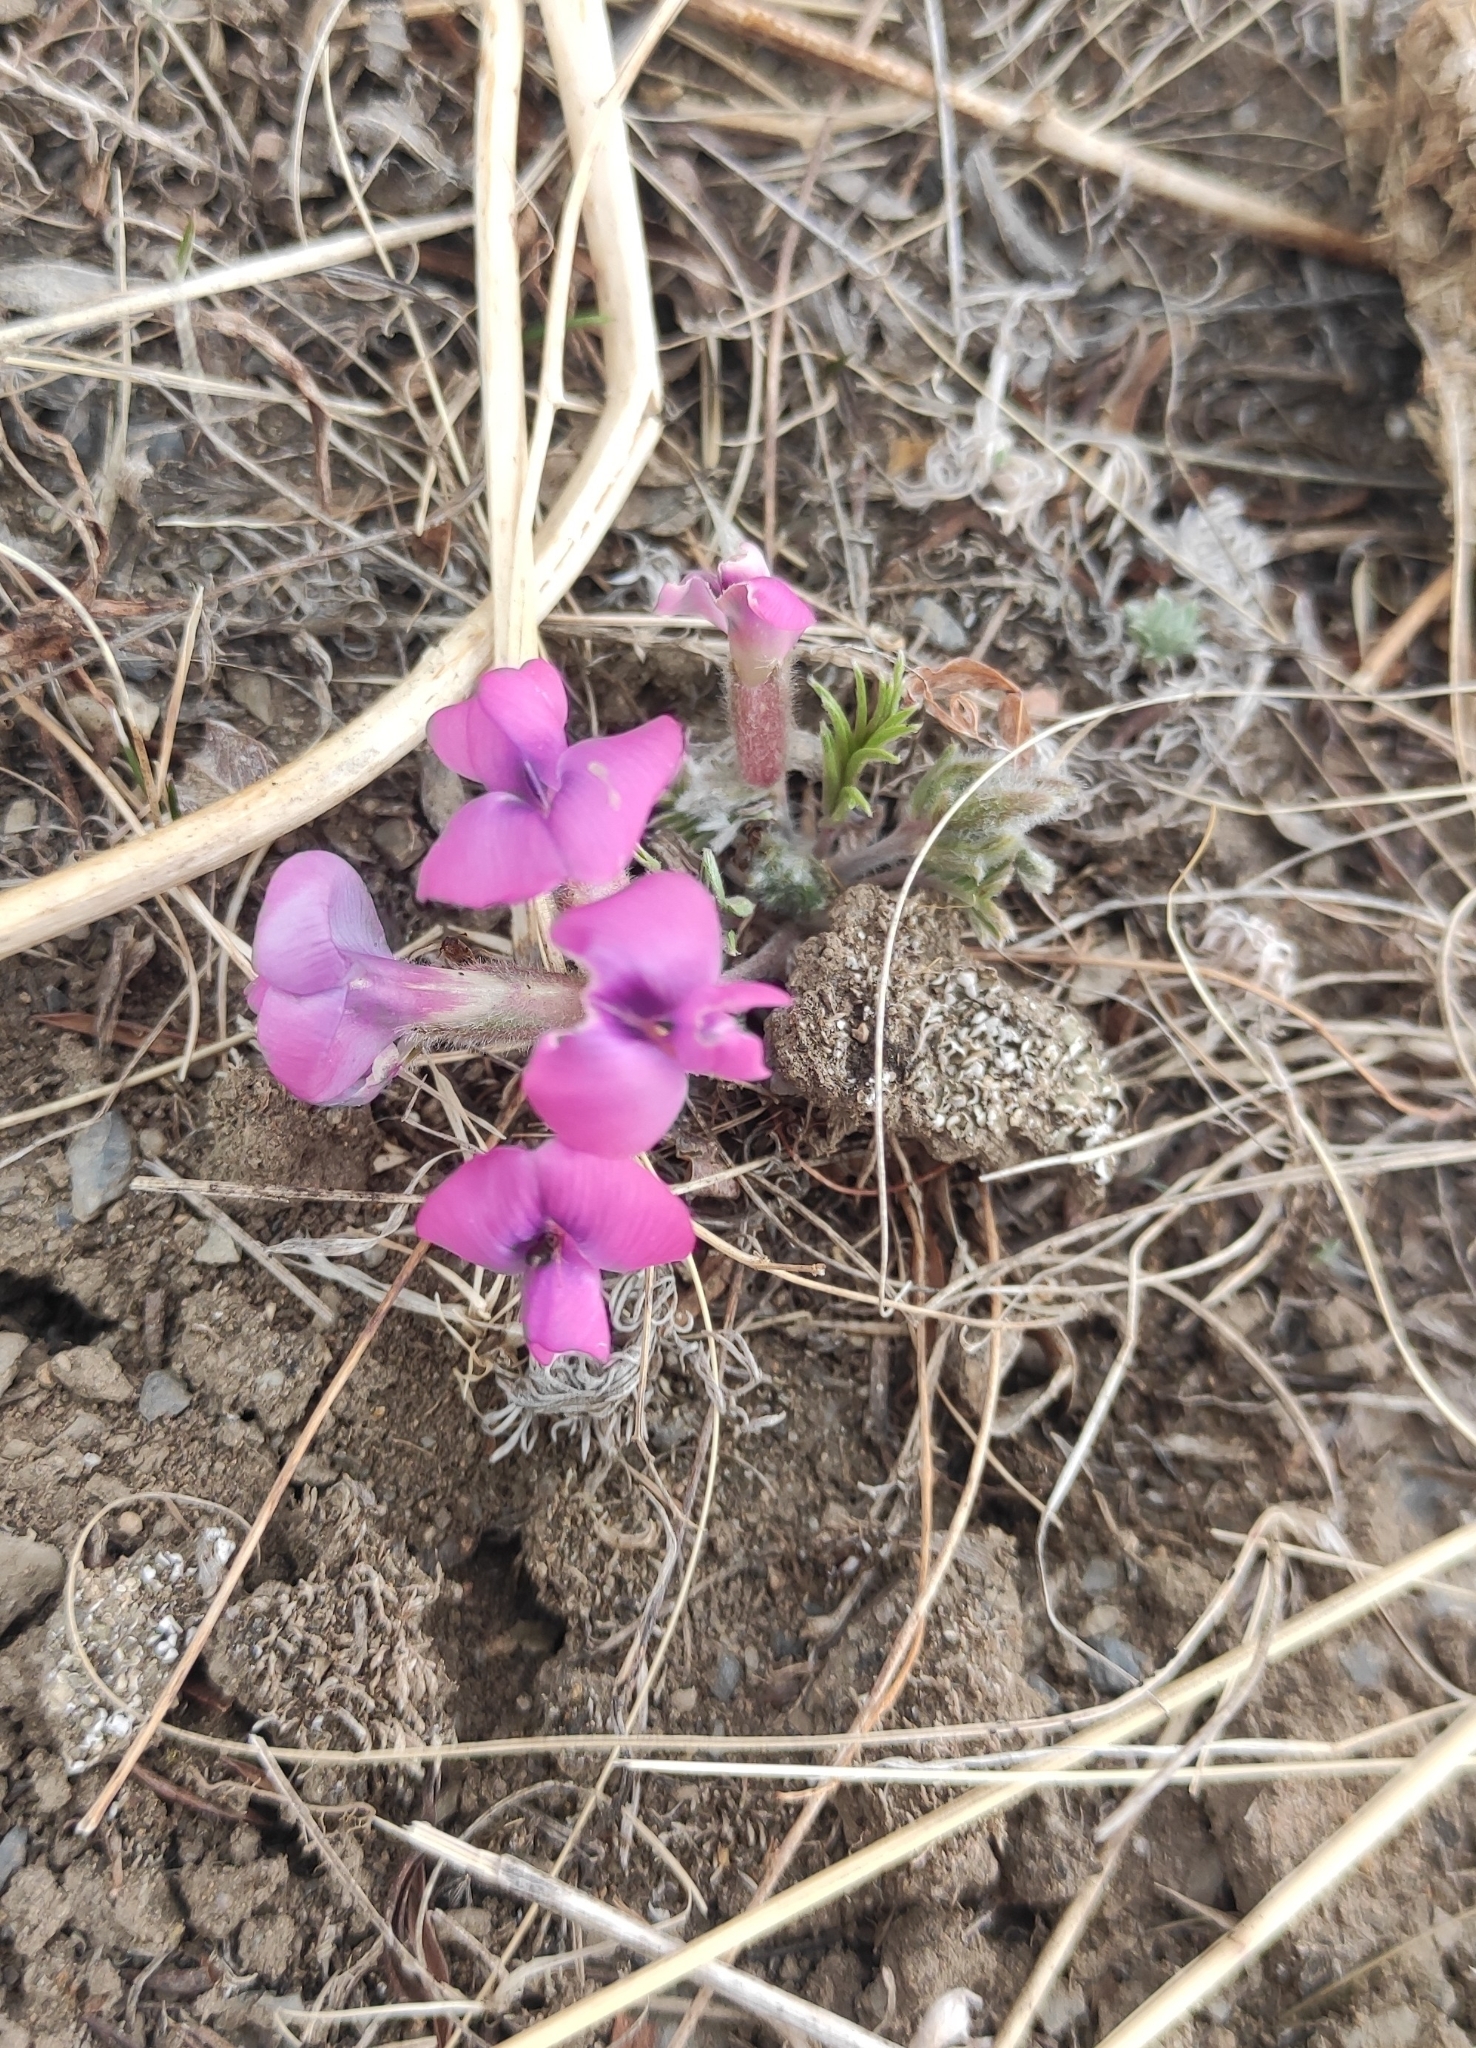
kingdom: Plantae
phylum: Tracheophyta
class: Magnoliopsida
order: Fabales
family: Fabaceae
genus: Oxytropis
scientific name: Oxytropis leptophylla
